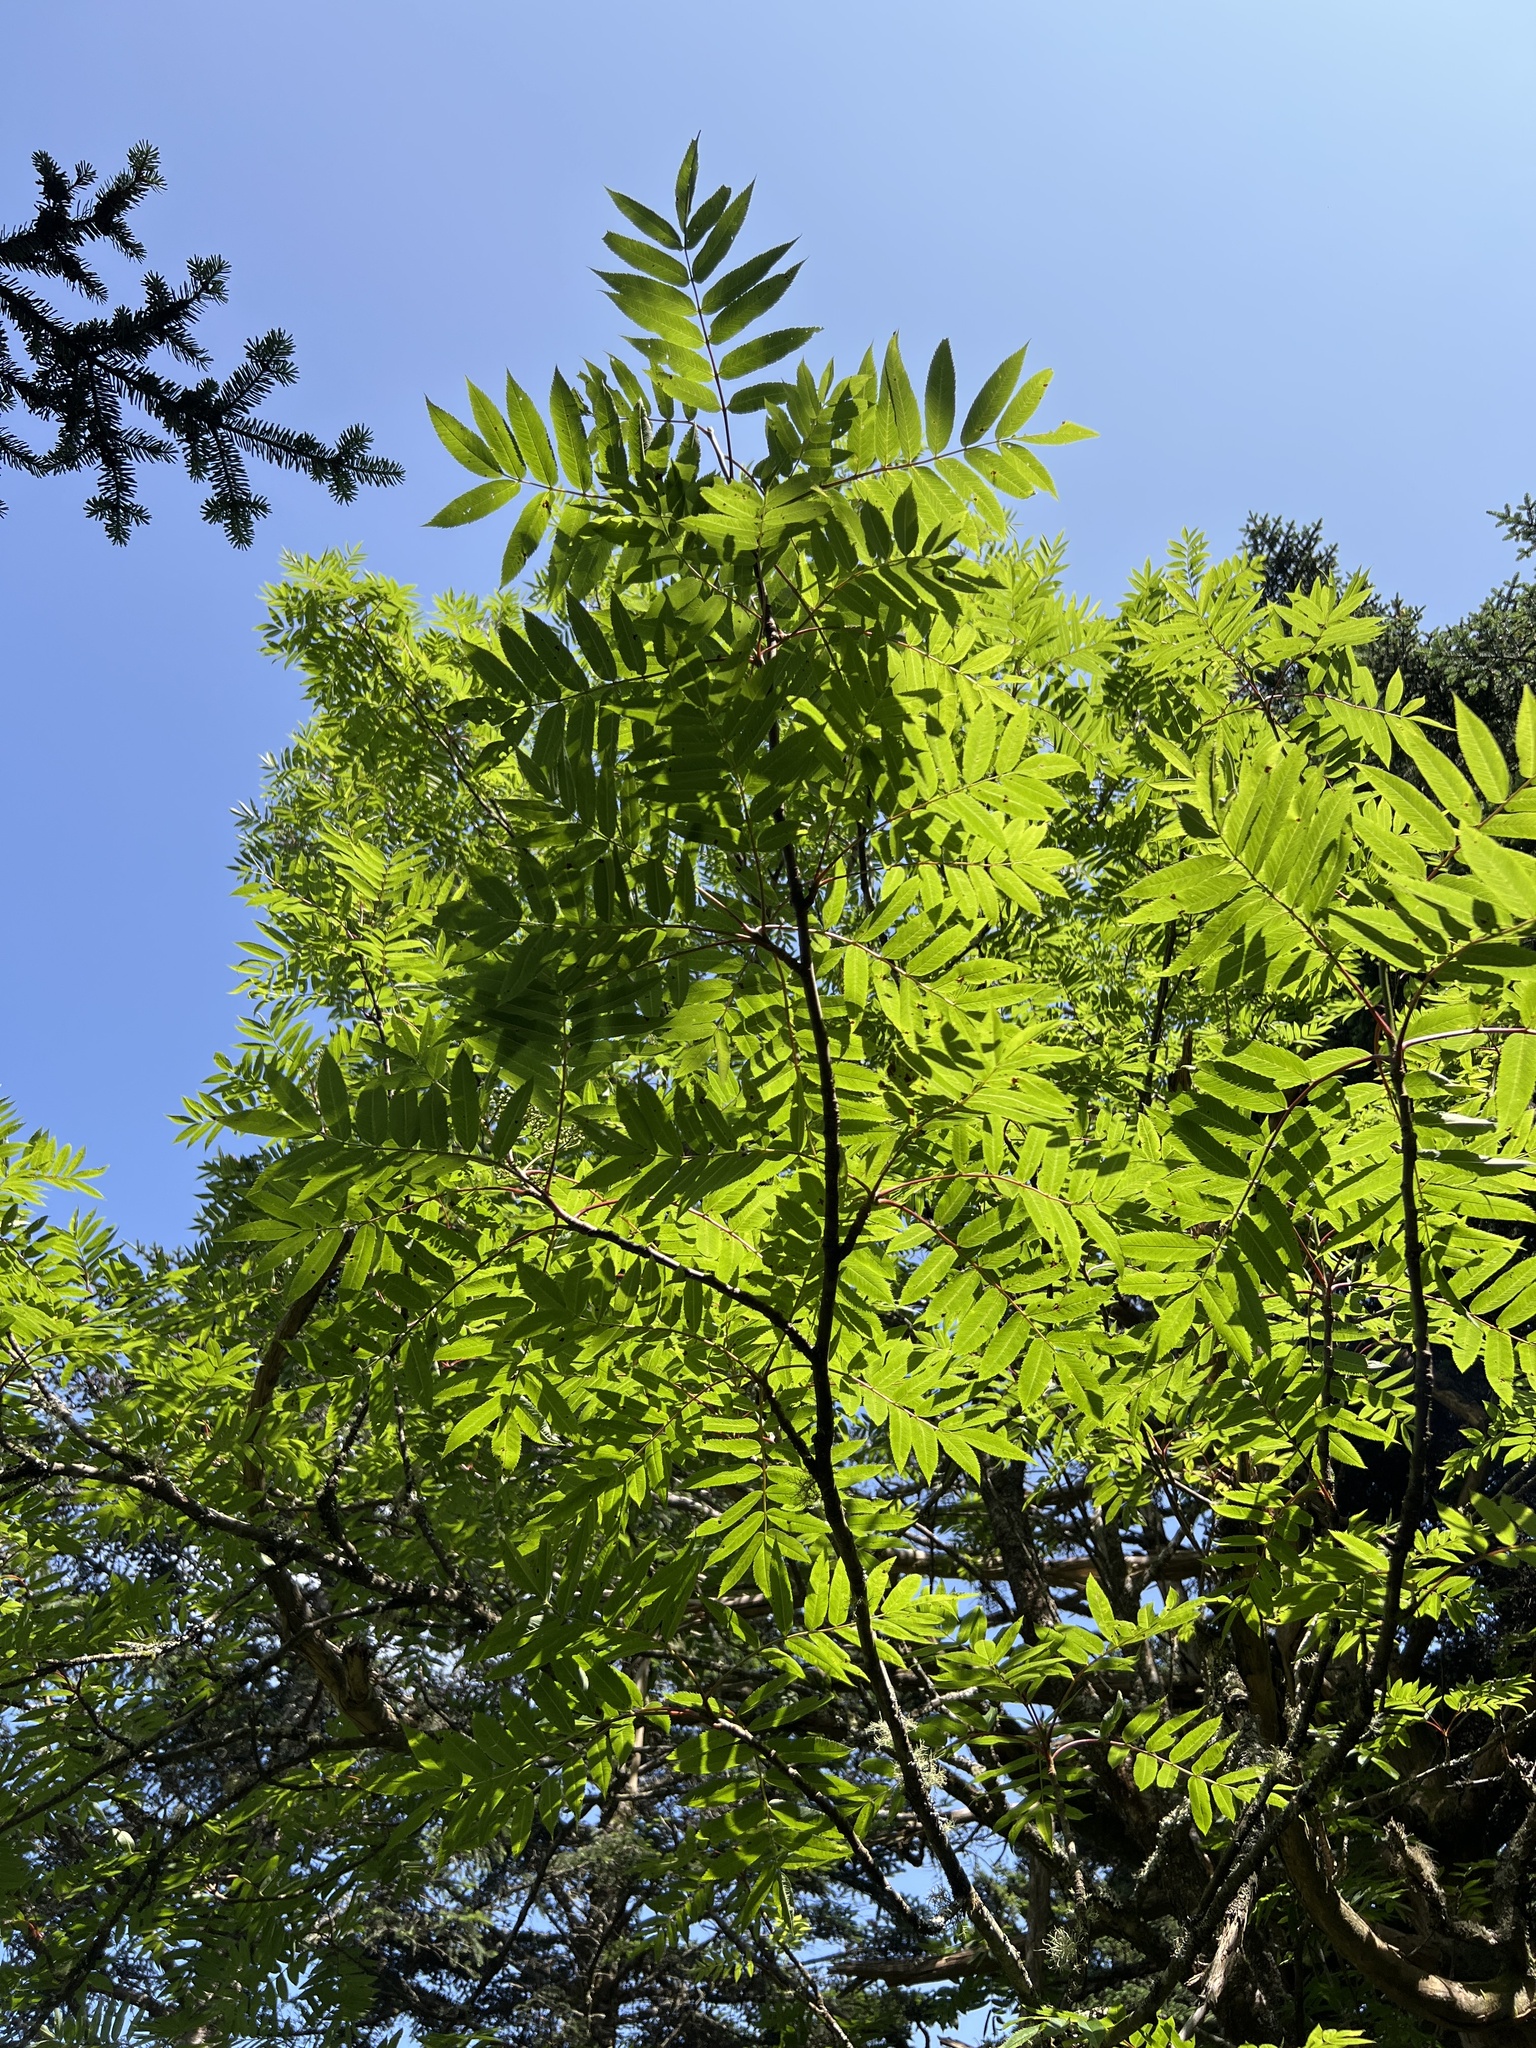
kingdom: Plantae
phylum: Tracheophyta
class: Magnoliopsida
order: Rosales
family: Rosaceae
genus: Sorbus
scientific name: Sorbus americana
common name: American mountain-ash
